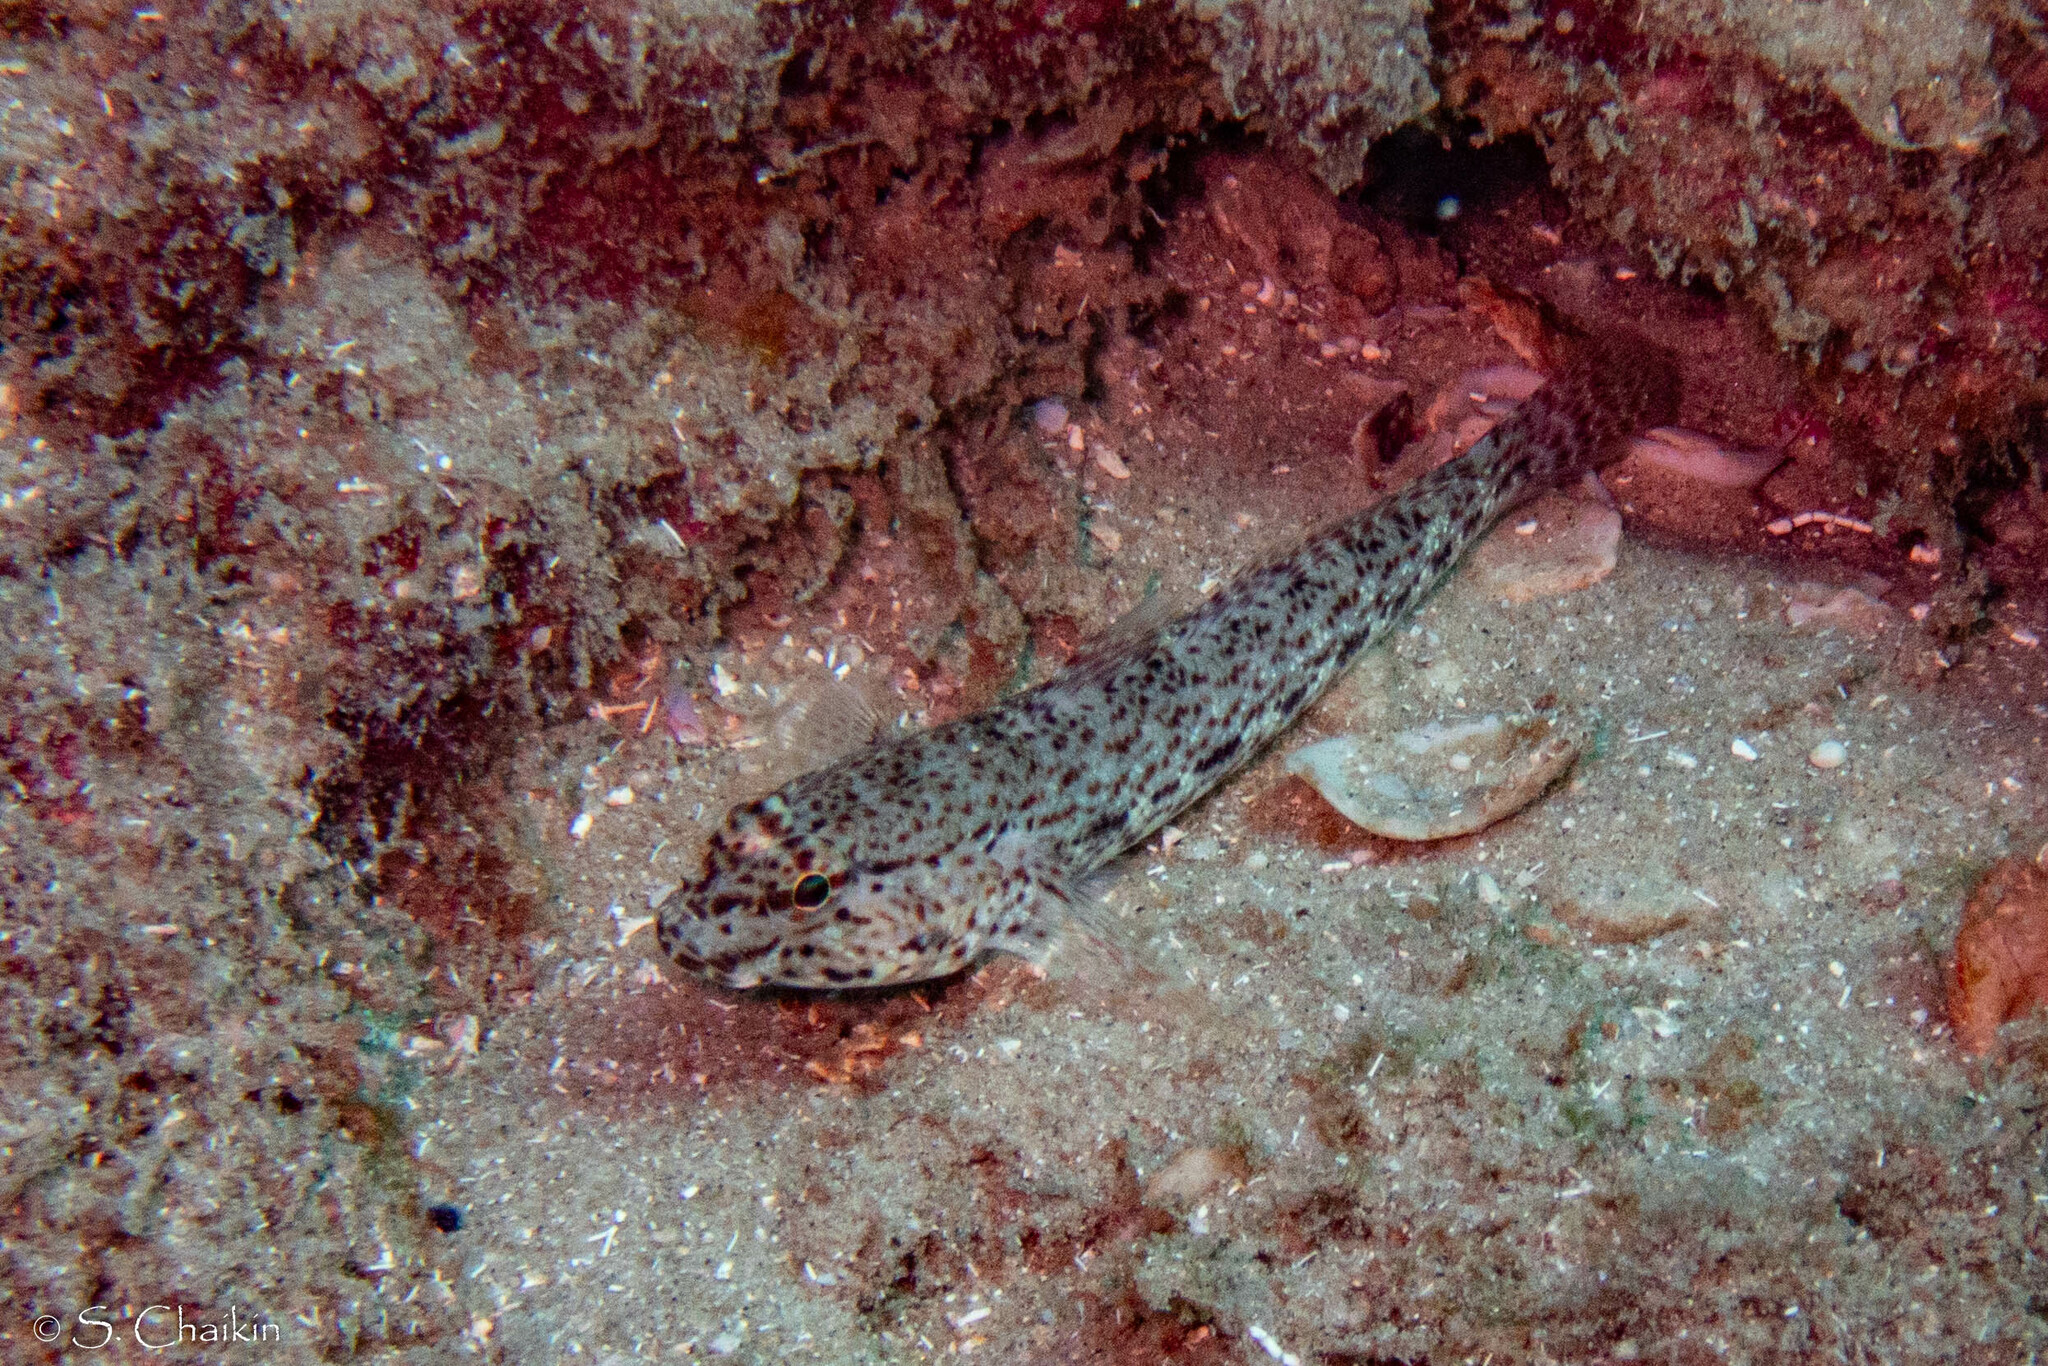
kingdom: Animalia
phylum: Chordata
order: Perciformes
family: Gobiidae
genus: Gobius
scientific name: Gobius incognitus
